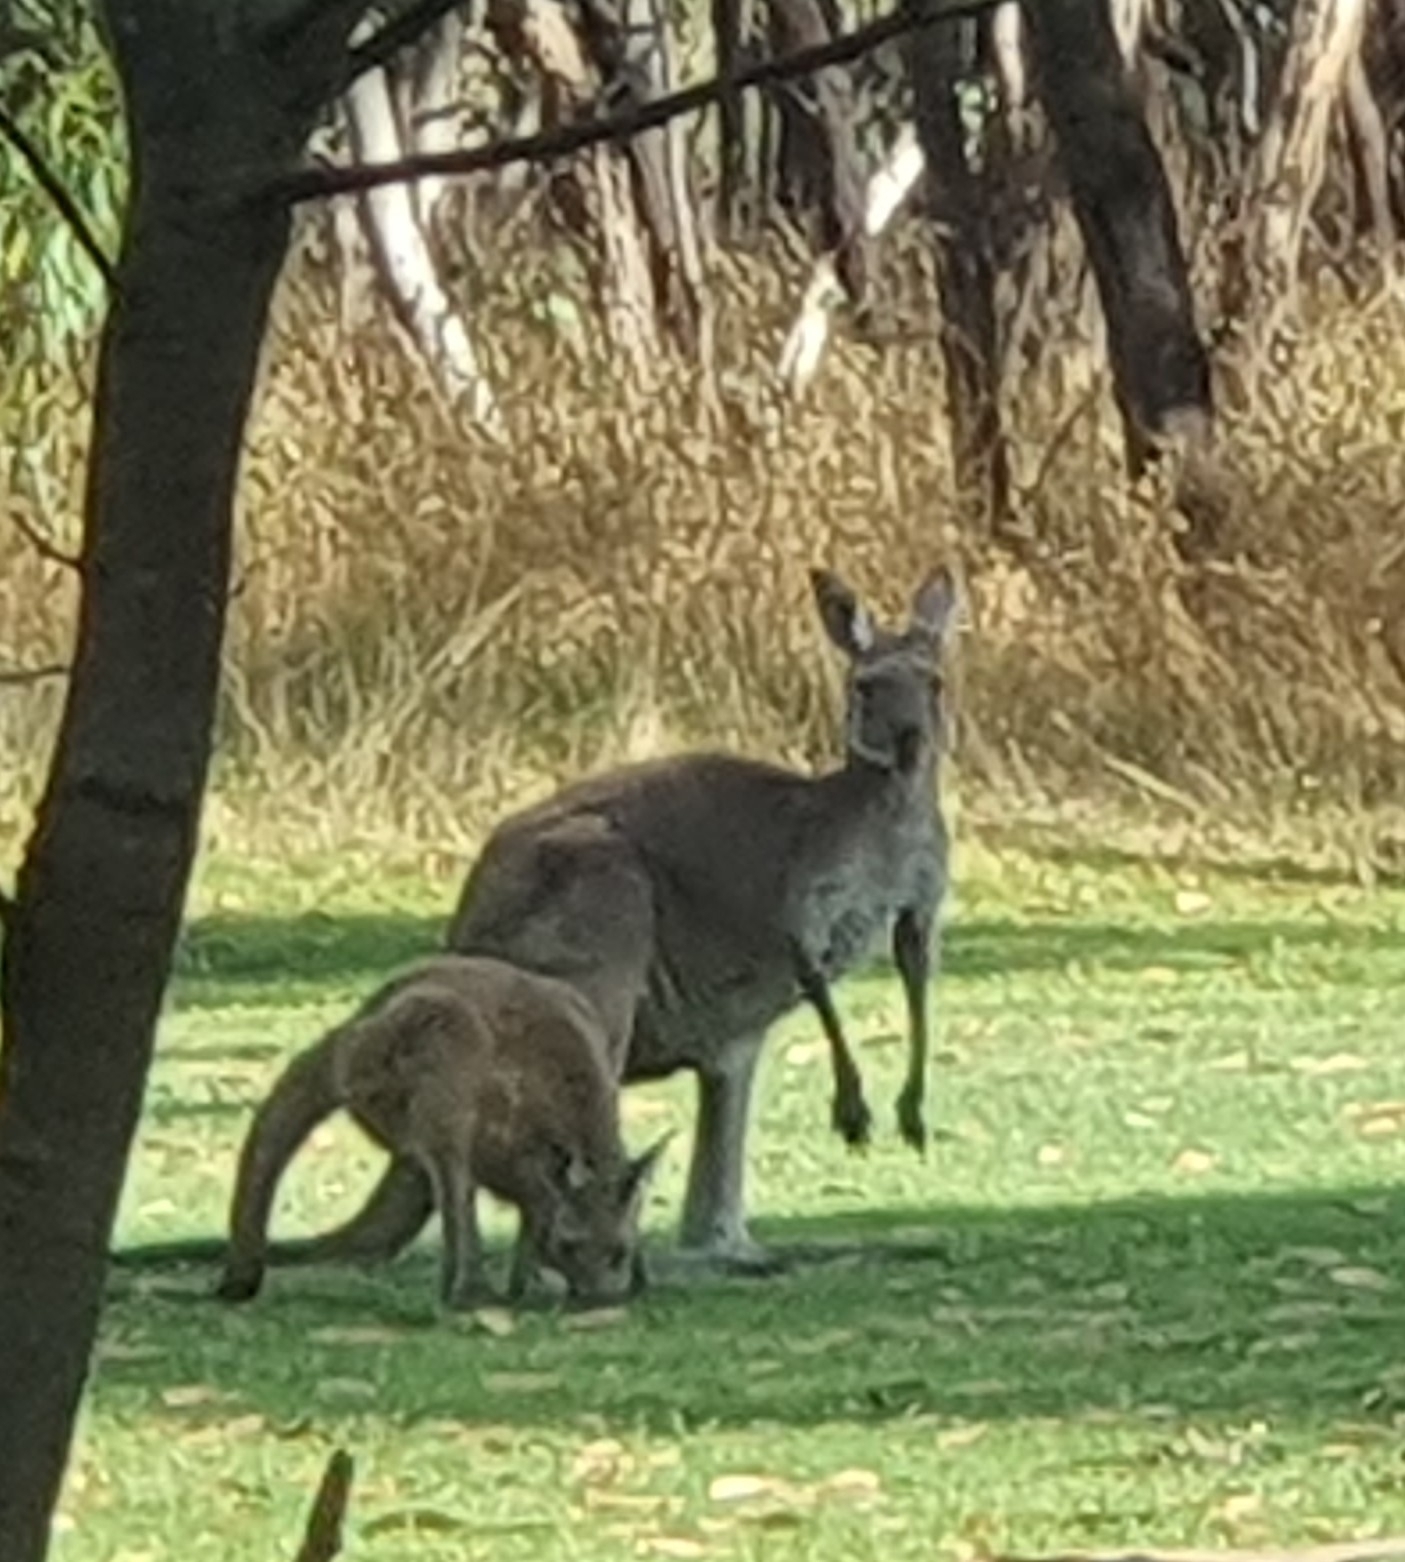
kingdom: Animalia
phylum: Chordata
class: Mammalia
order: Diprotodontia
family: Macropodidae
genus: Macropus
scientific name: Macropus fuliginosus
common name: Western grey kangaroo
